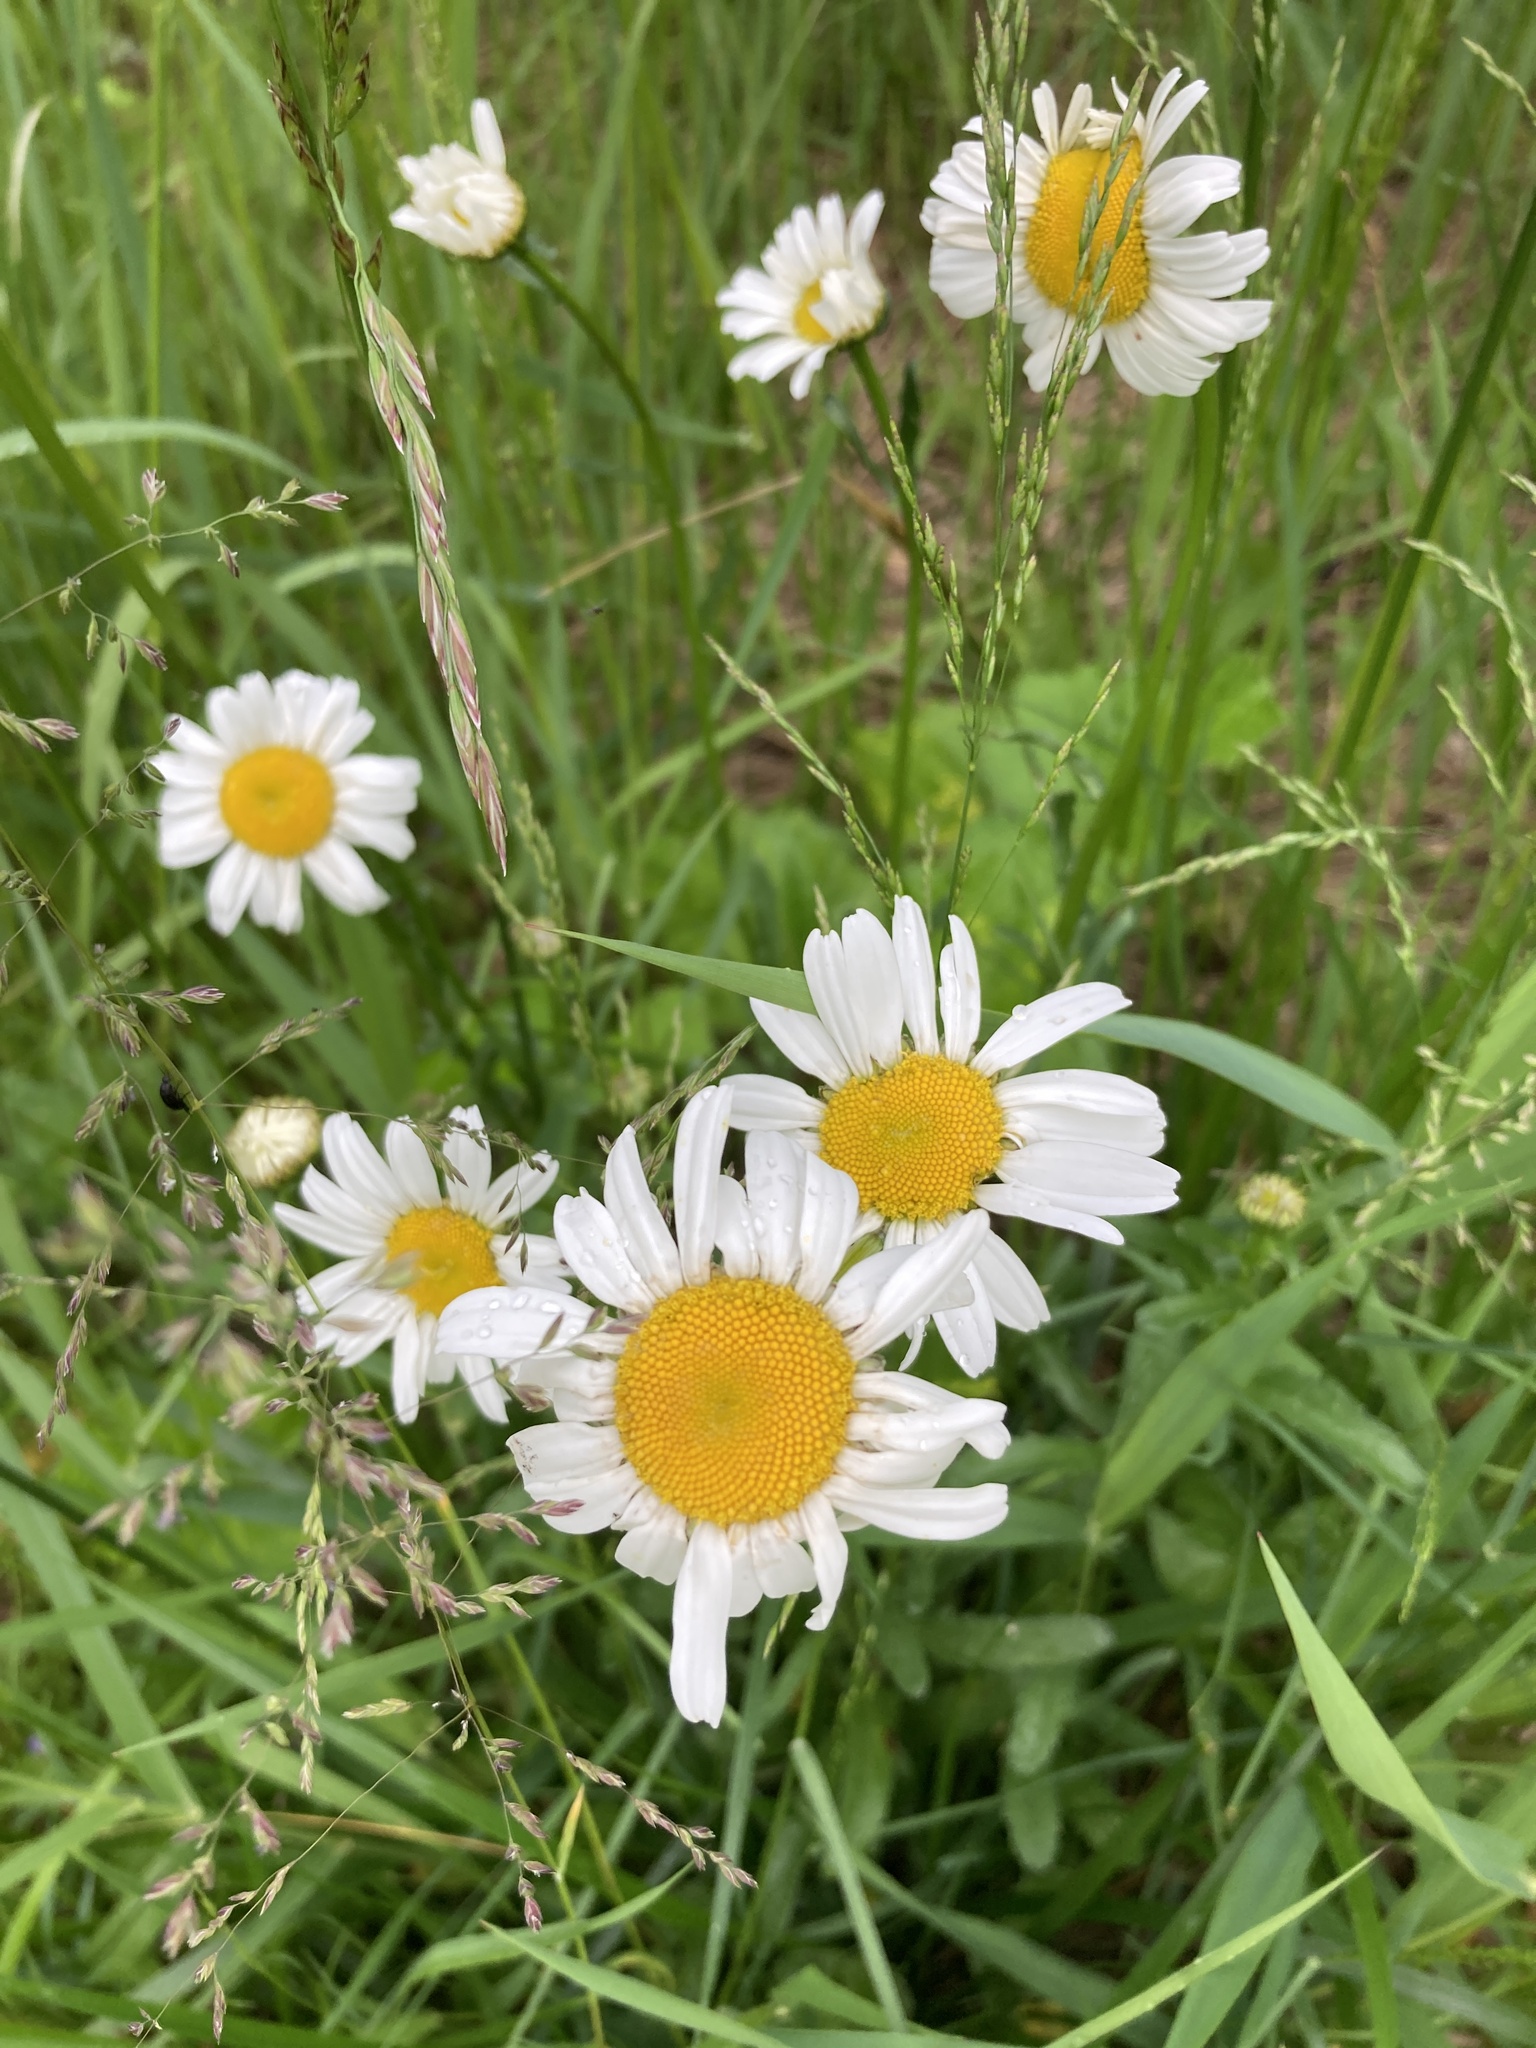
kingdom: Plantae
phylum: Tracheophyta
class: Magnoliopsida
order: Asterales
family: Asteraceae
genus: Leucanthemum
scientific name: Leucanthemum vulgare
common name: Oxeye daisy
